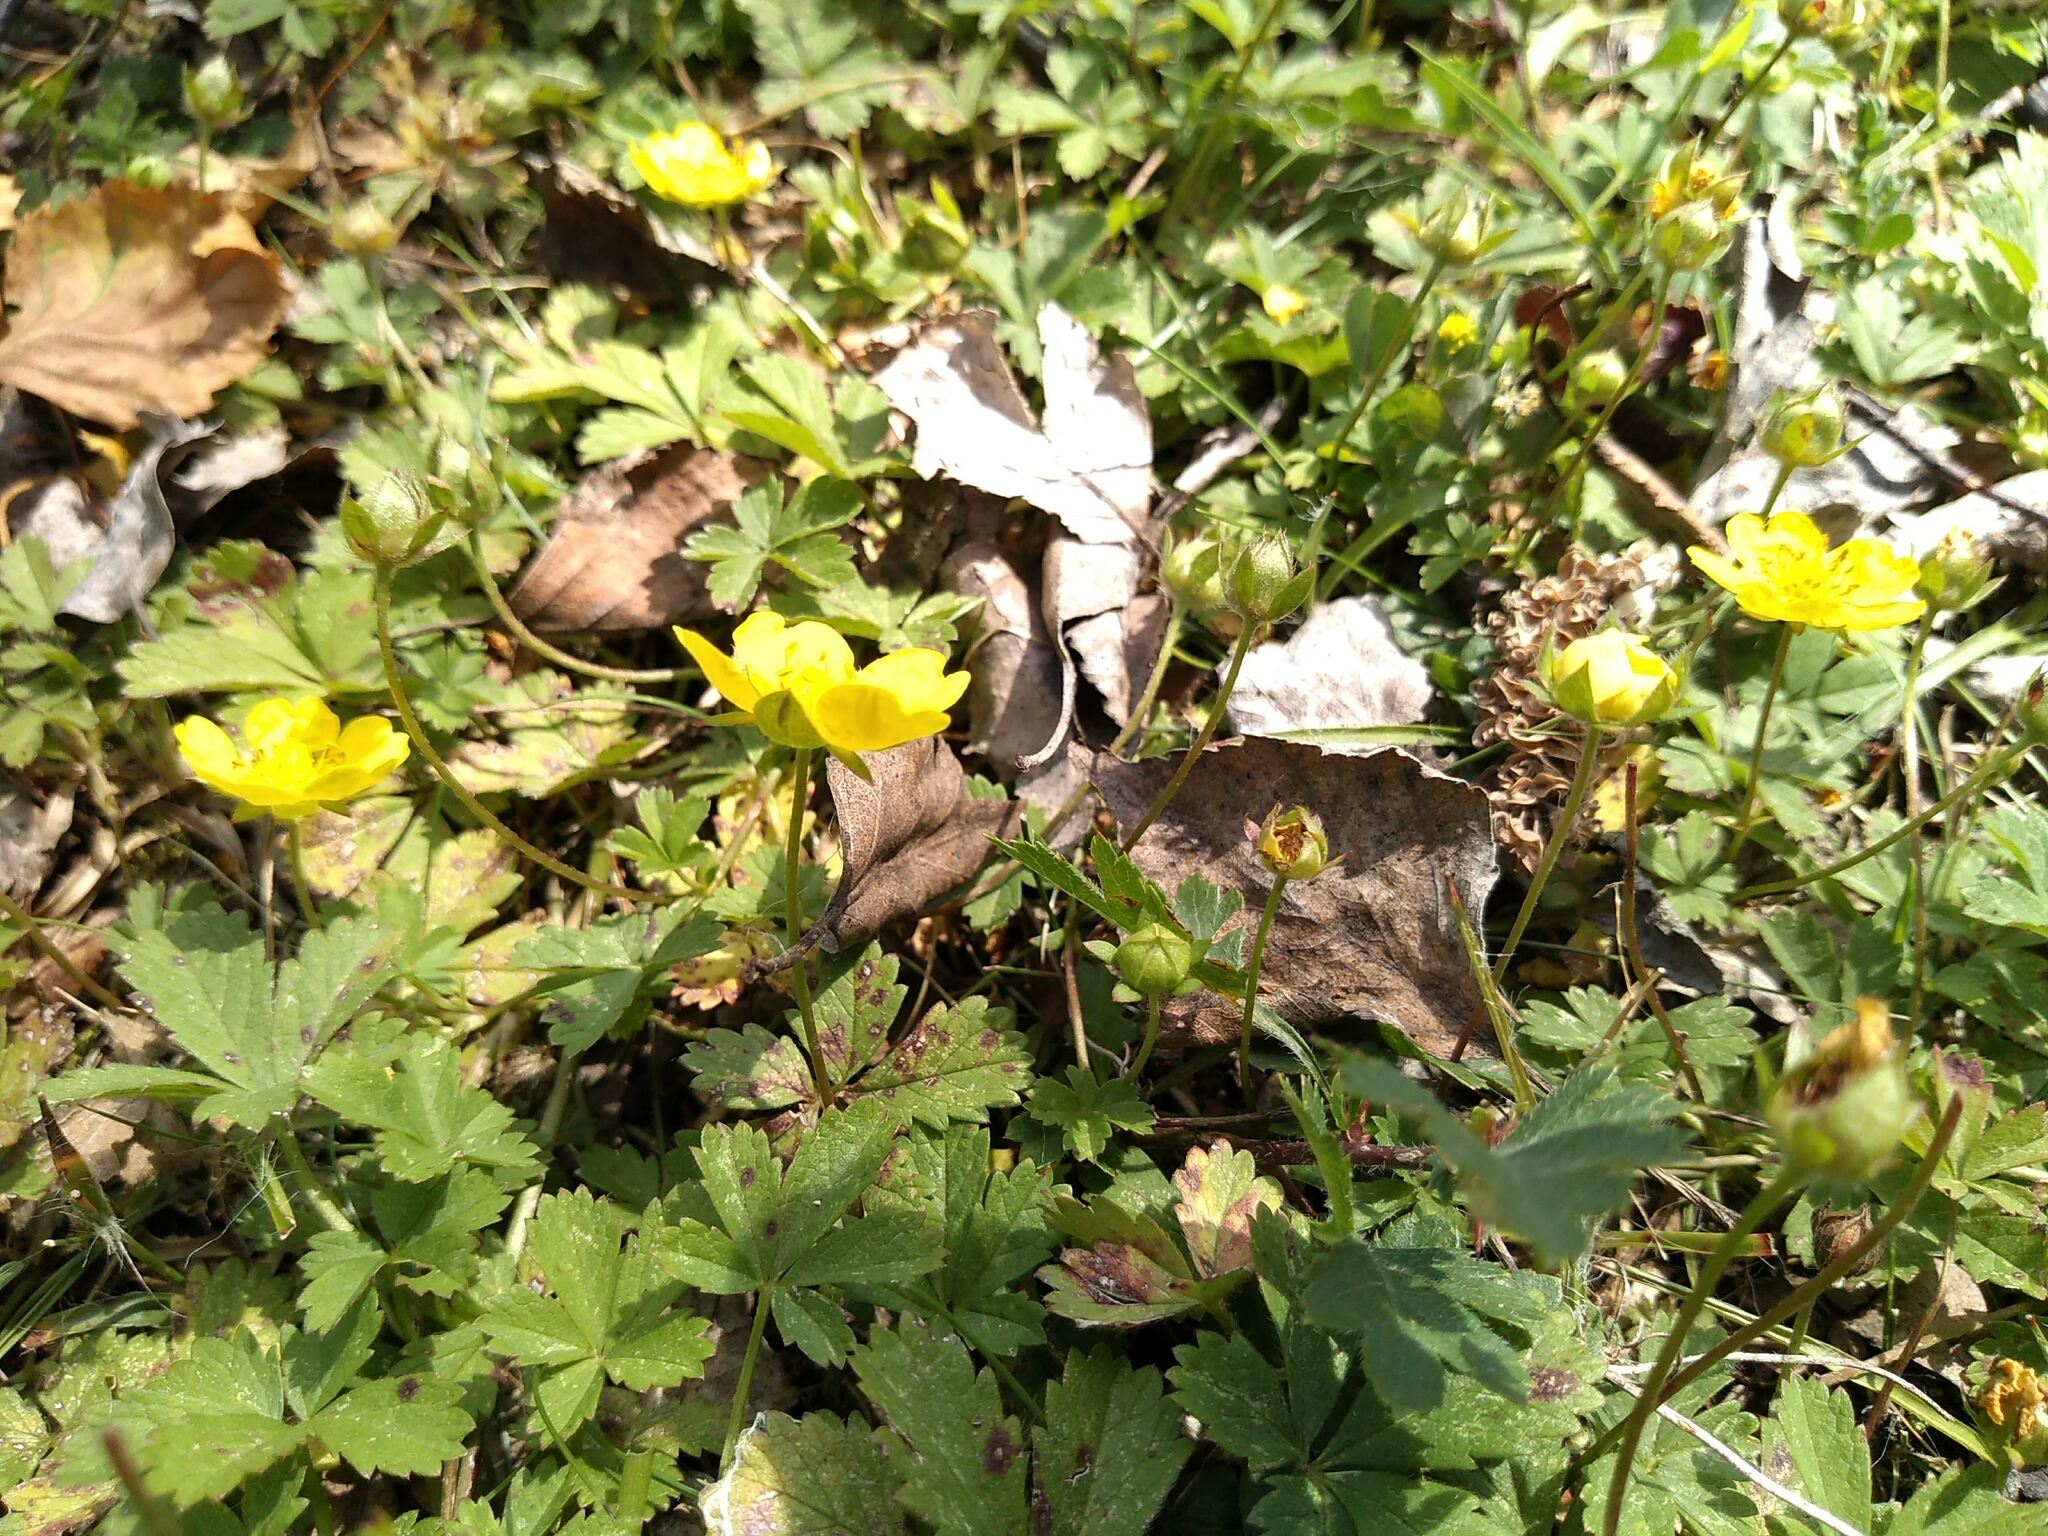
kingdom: Plantae
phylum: Tracheophyta
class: Magnoliopsida
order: Rosales
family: Rosaceae
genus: Potentilla
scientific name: Potentilla reptans
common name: Creeping cinquefoil
